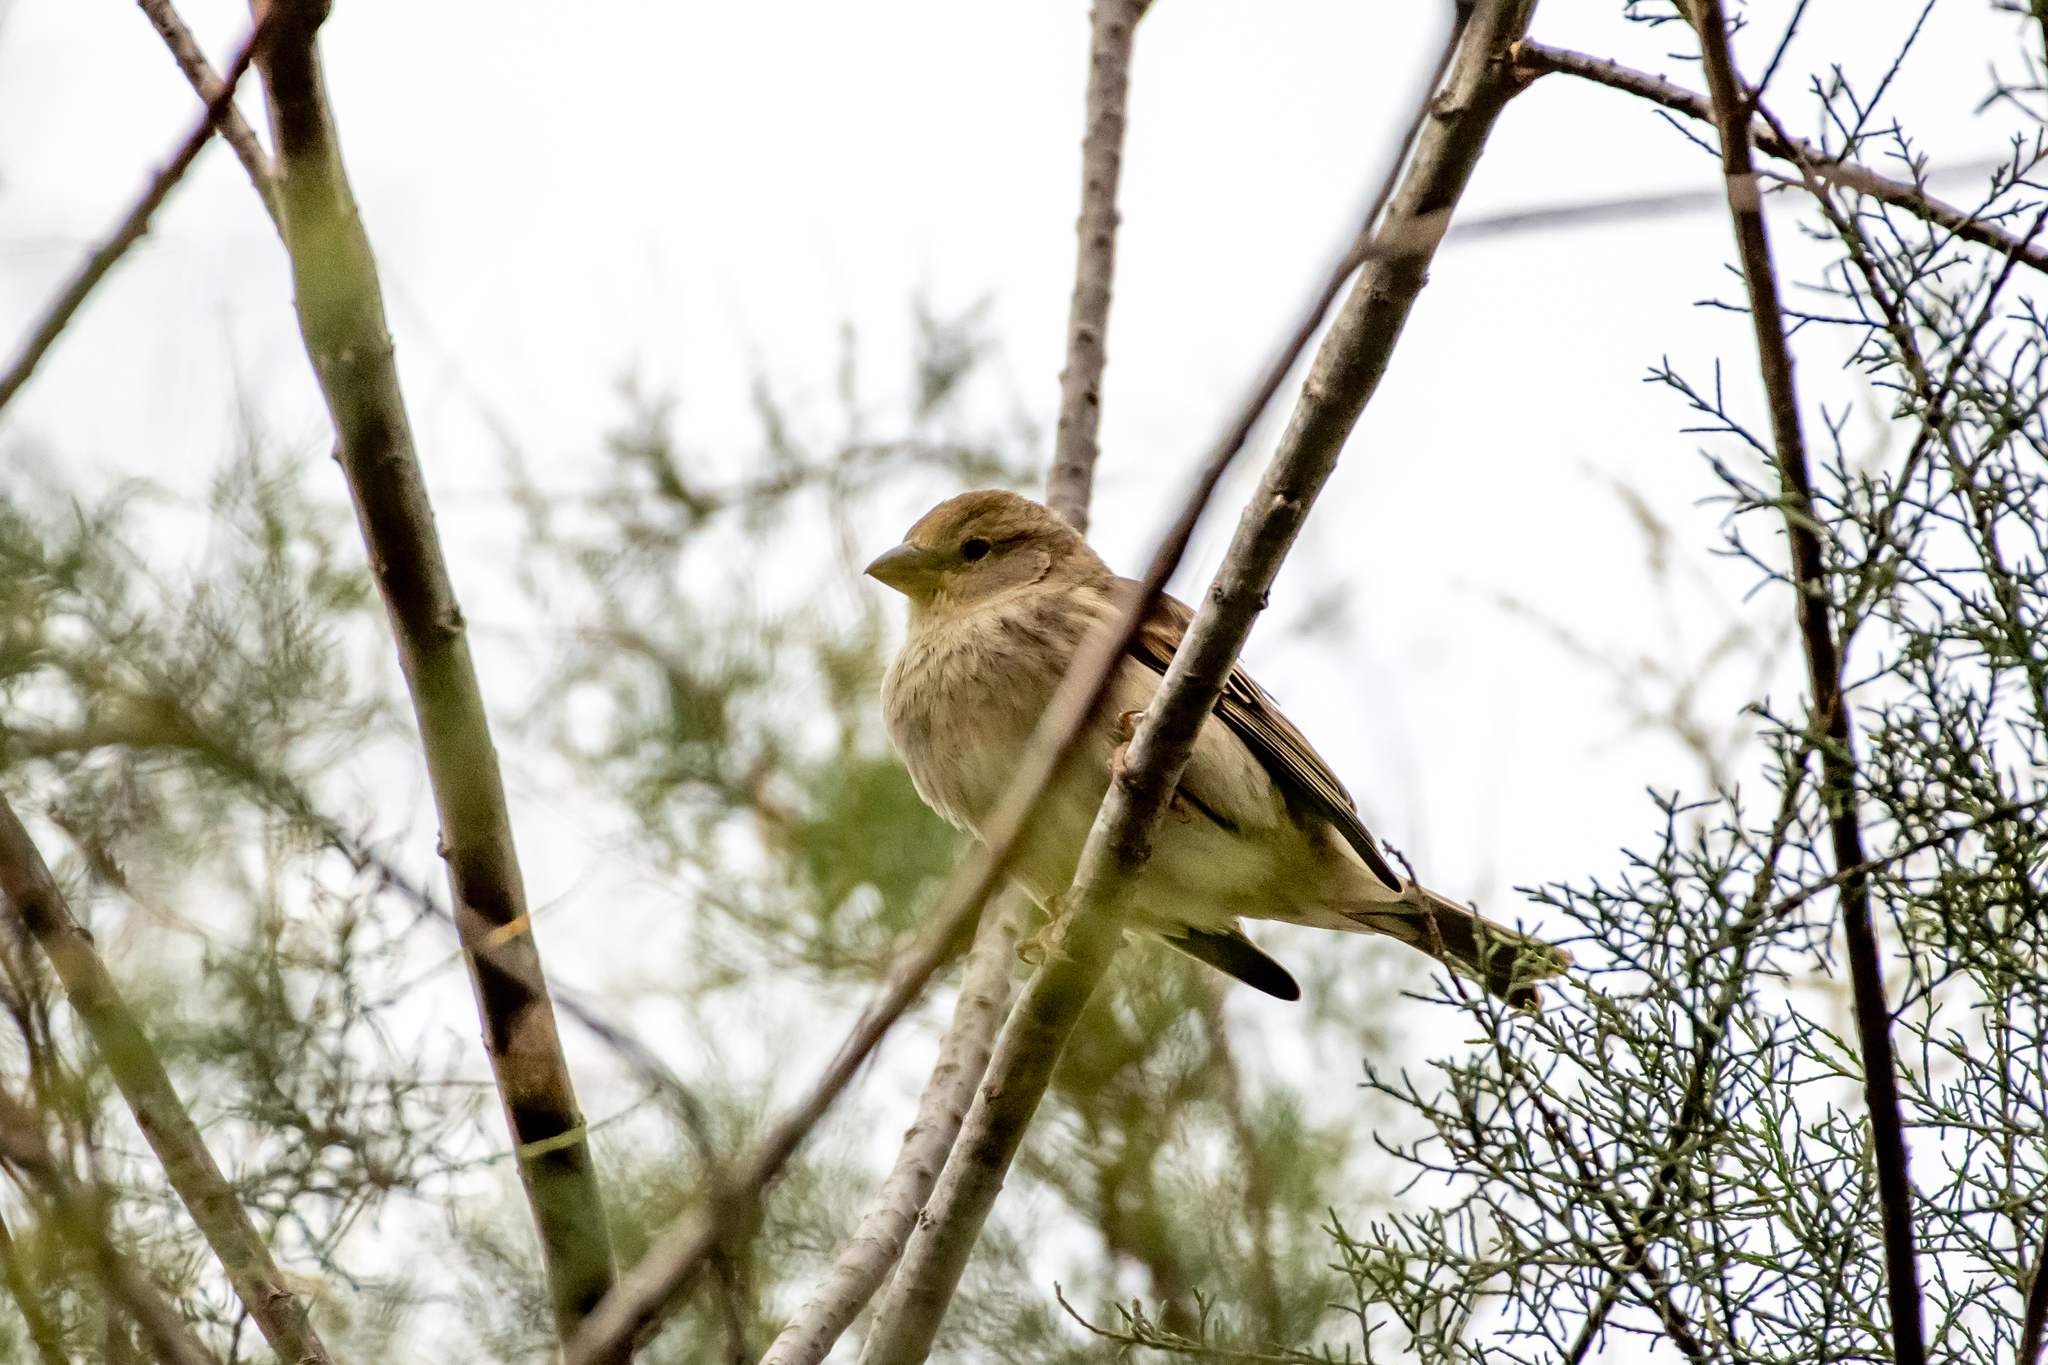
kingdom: Animalia
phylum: Chordata
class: Aves
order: Passeriformes
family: Passeridae
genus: Passer
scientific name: Passer hispaniolensis
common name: Spanish sparrow
